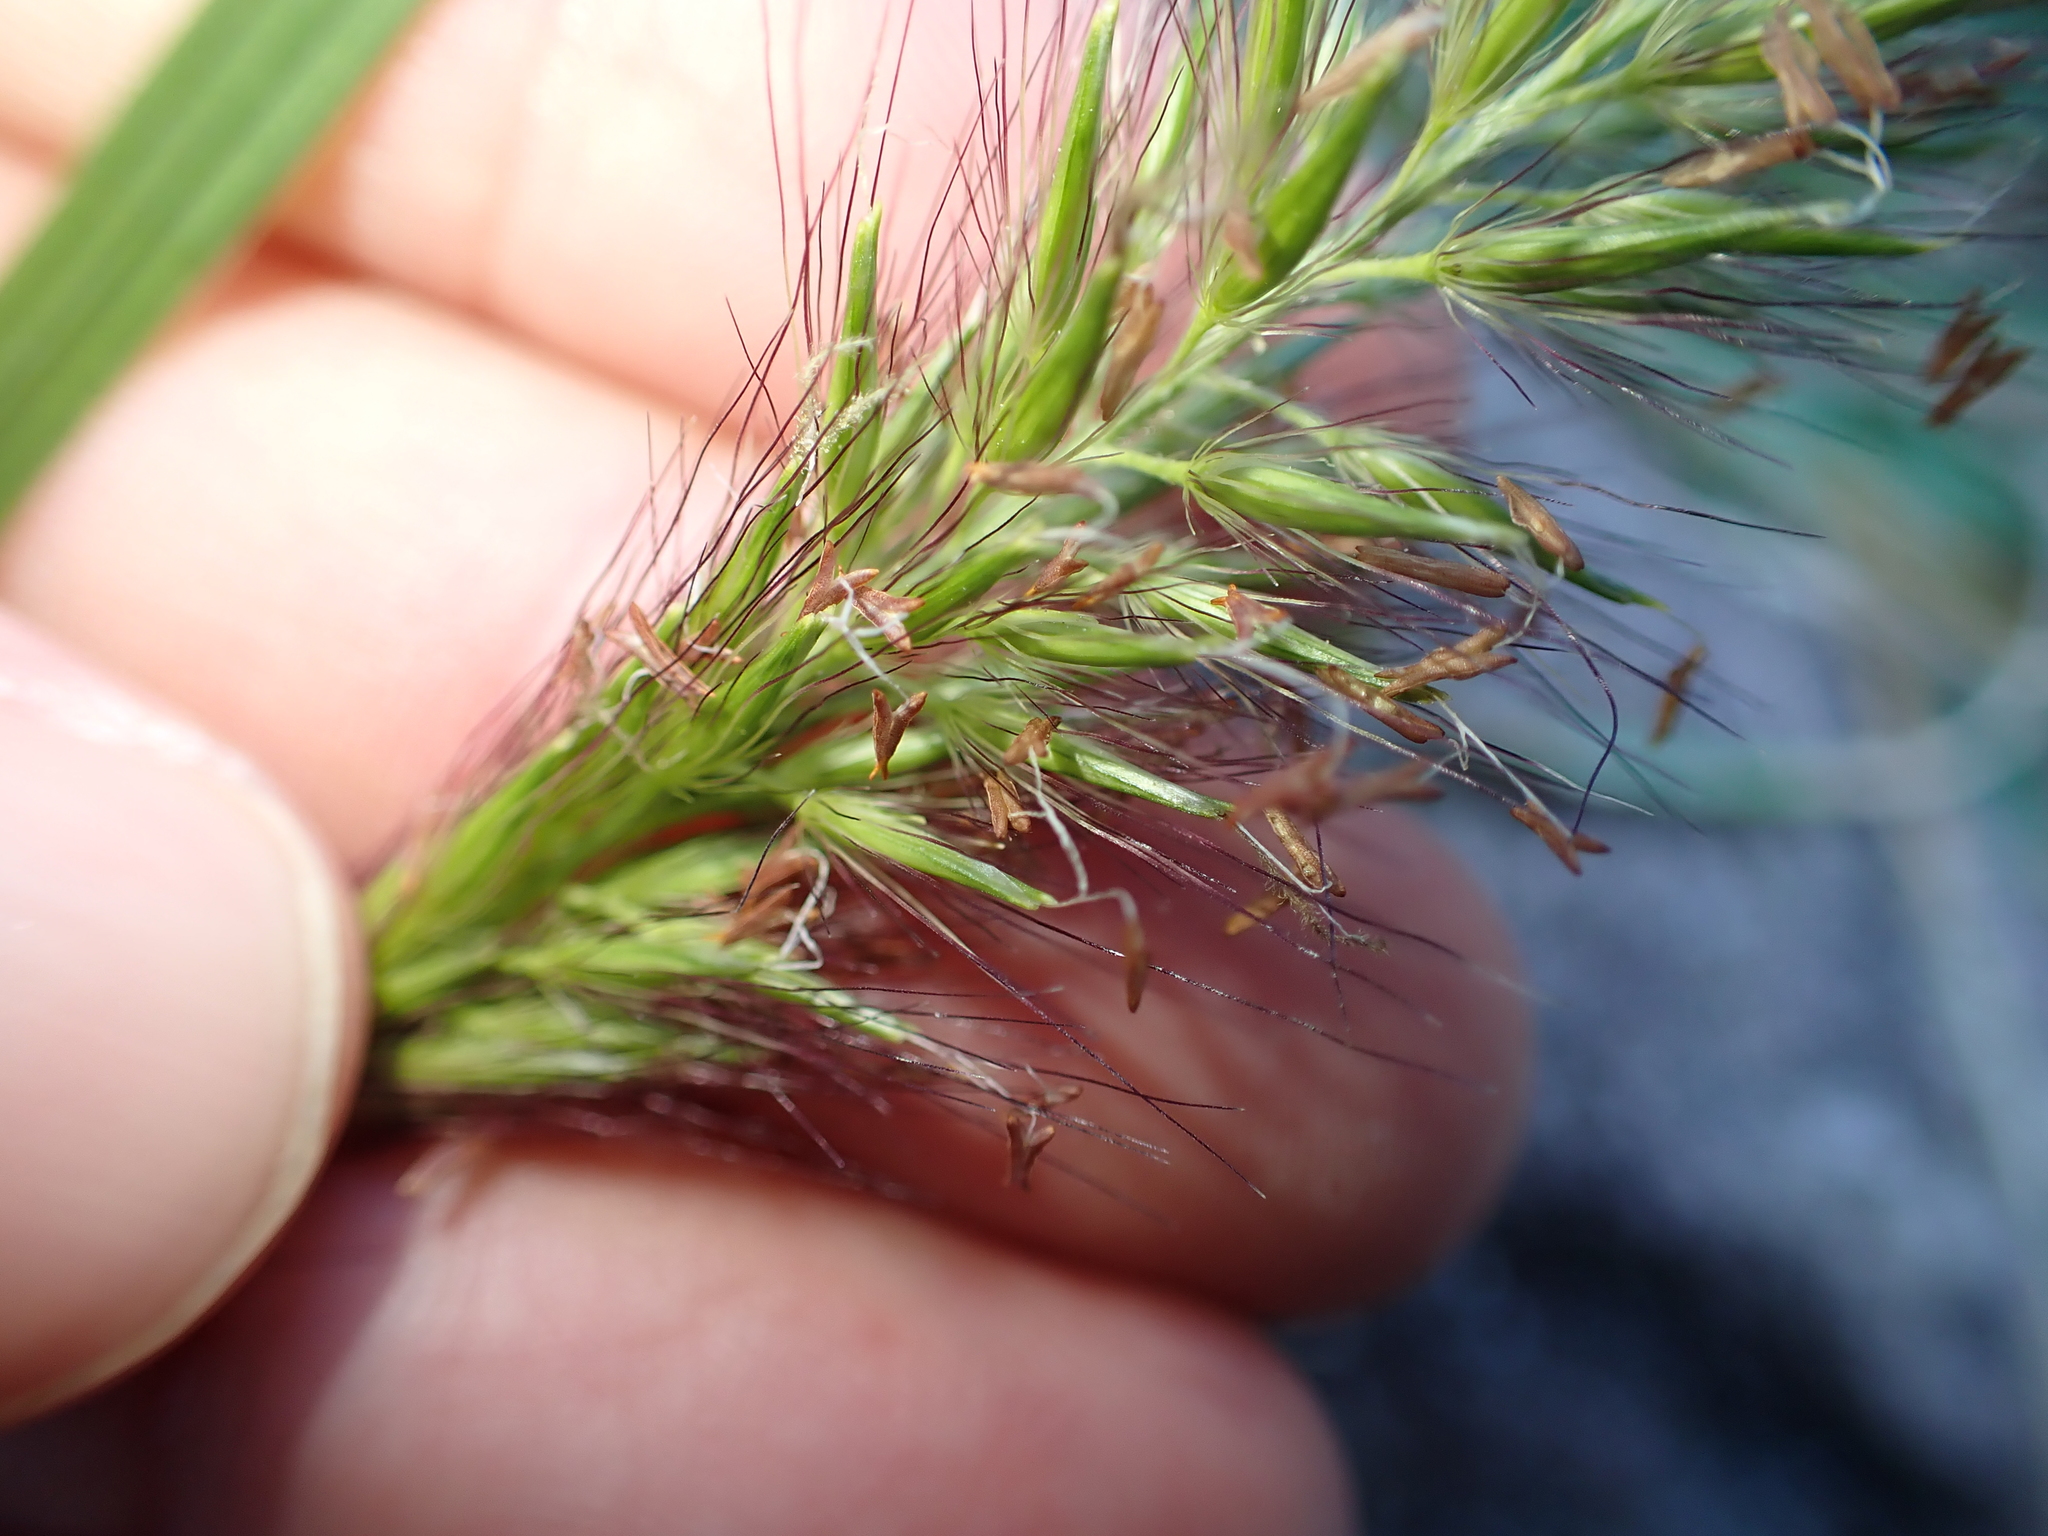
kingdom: Plantae
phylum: Tracheophyta
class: Liliopsida
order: Poales
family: Poaceae
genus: Cenchrus
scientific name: Cenchrus alopecuroides
